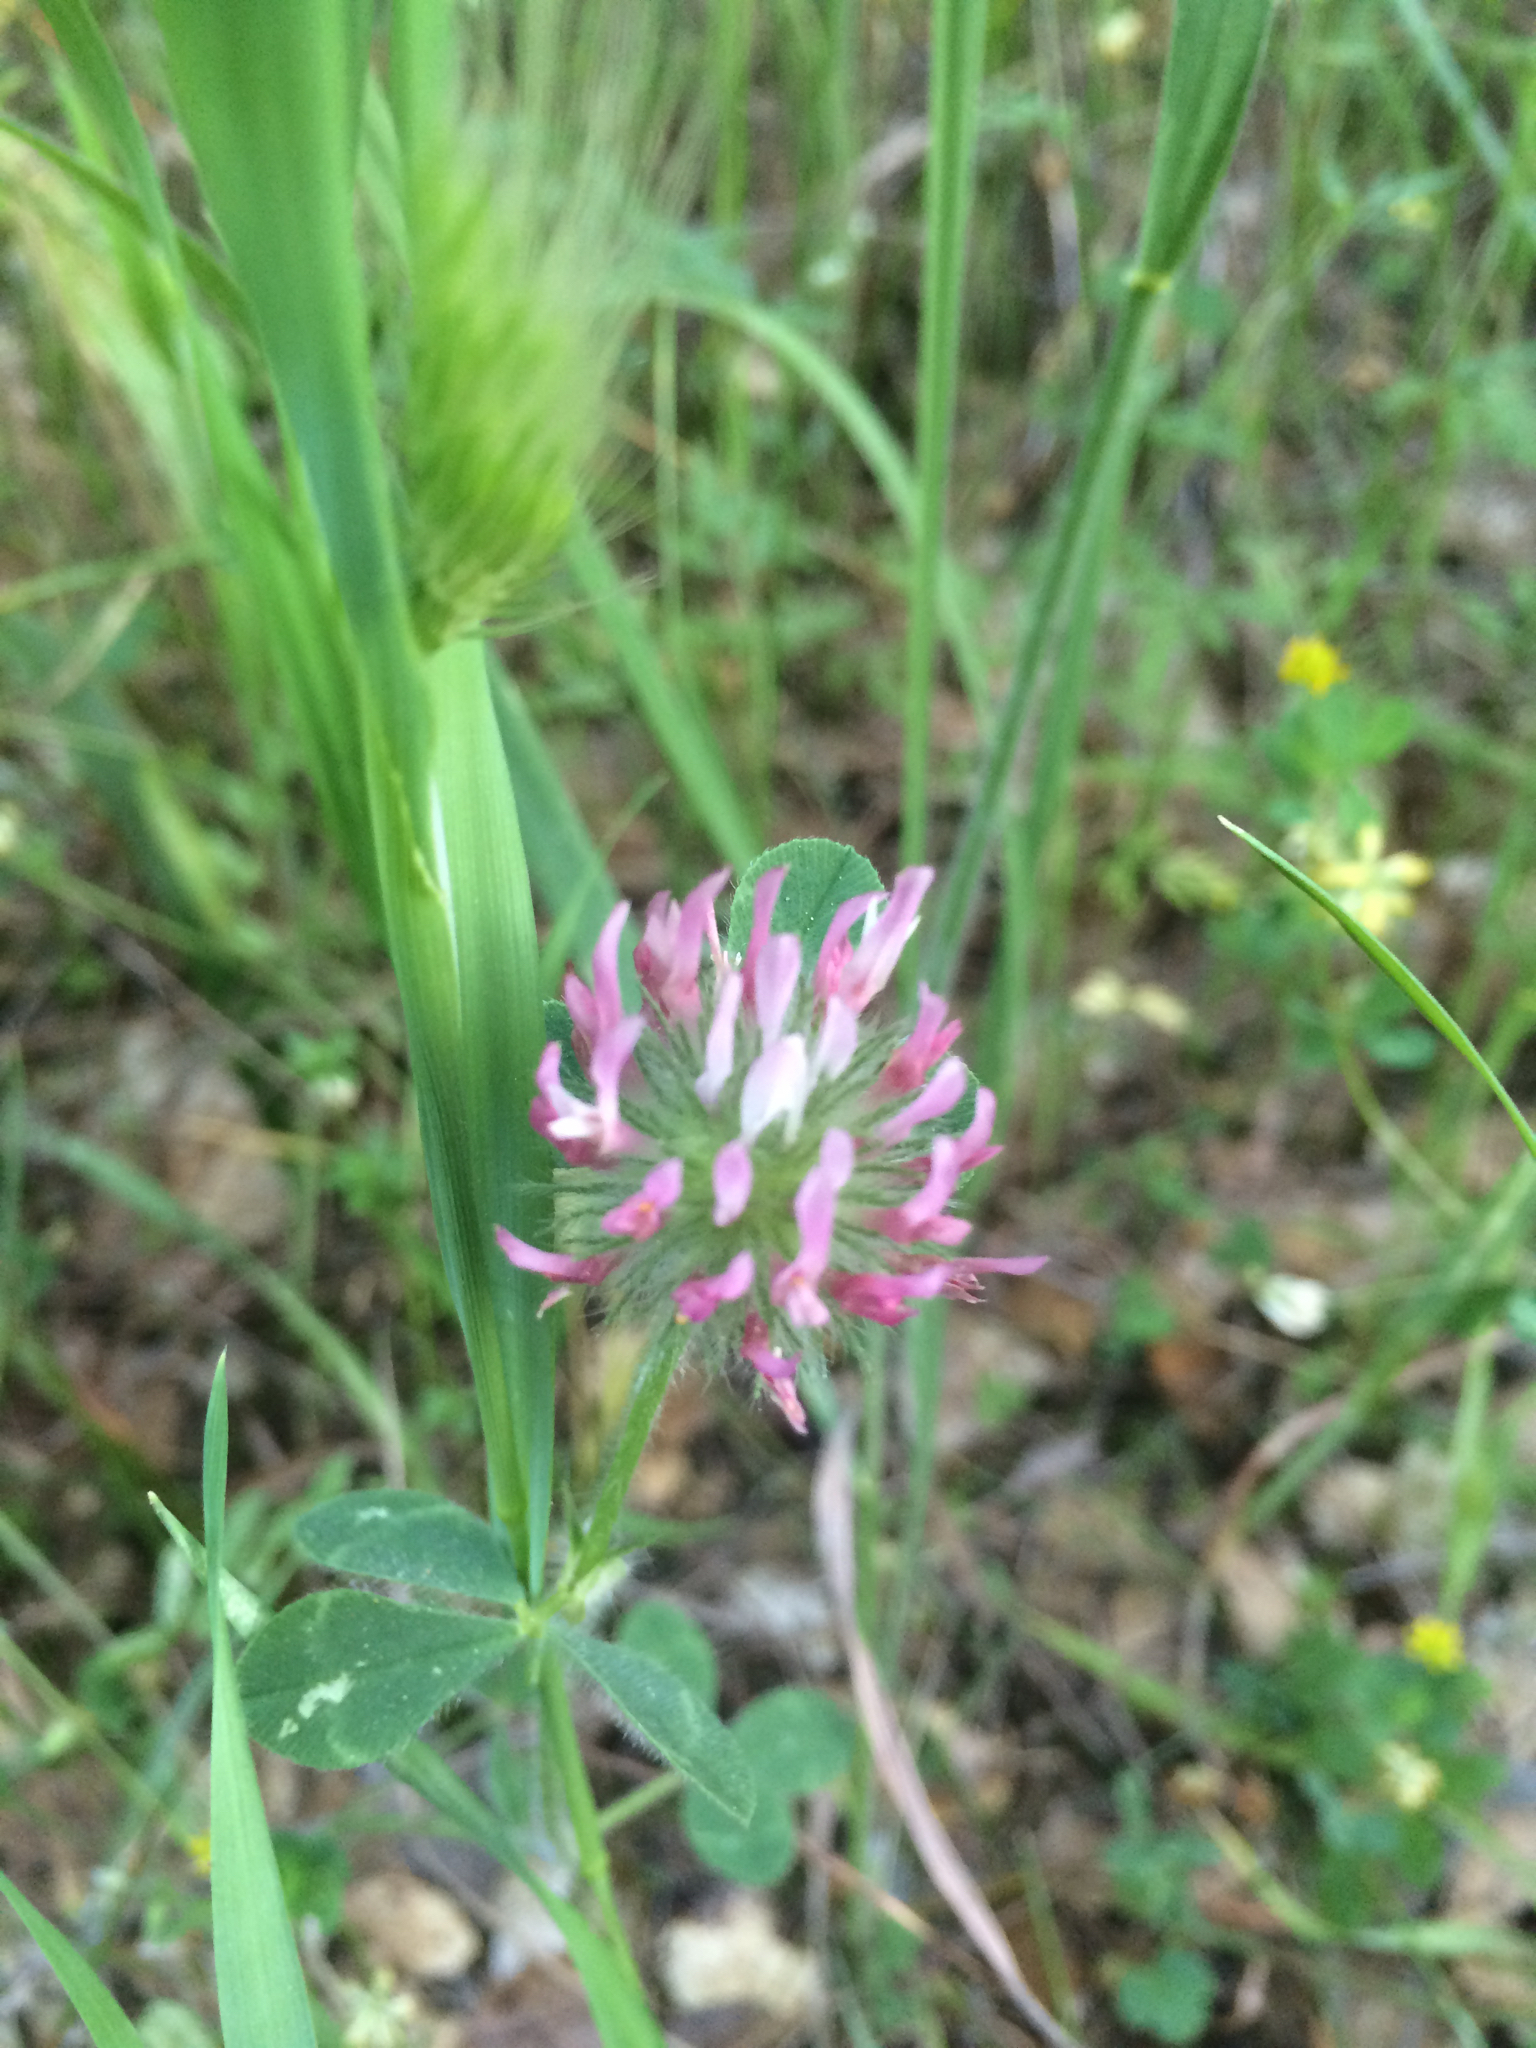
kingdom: Plantae
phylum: Tracheophyta
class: Magnoliopsida
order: Fabales
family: Fabaceae
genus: Trifolium
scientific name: Trifolium hirtum
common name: Rose clover
